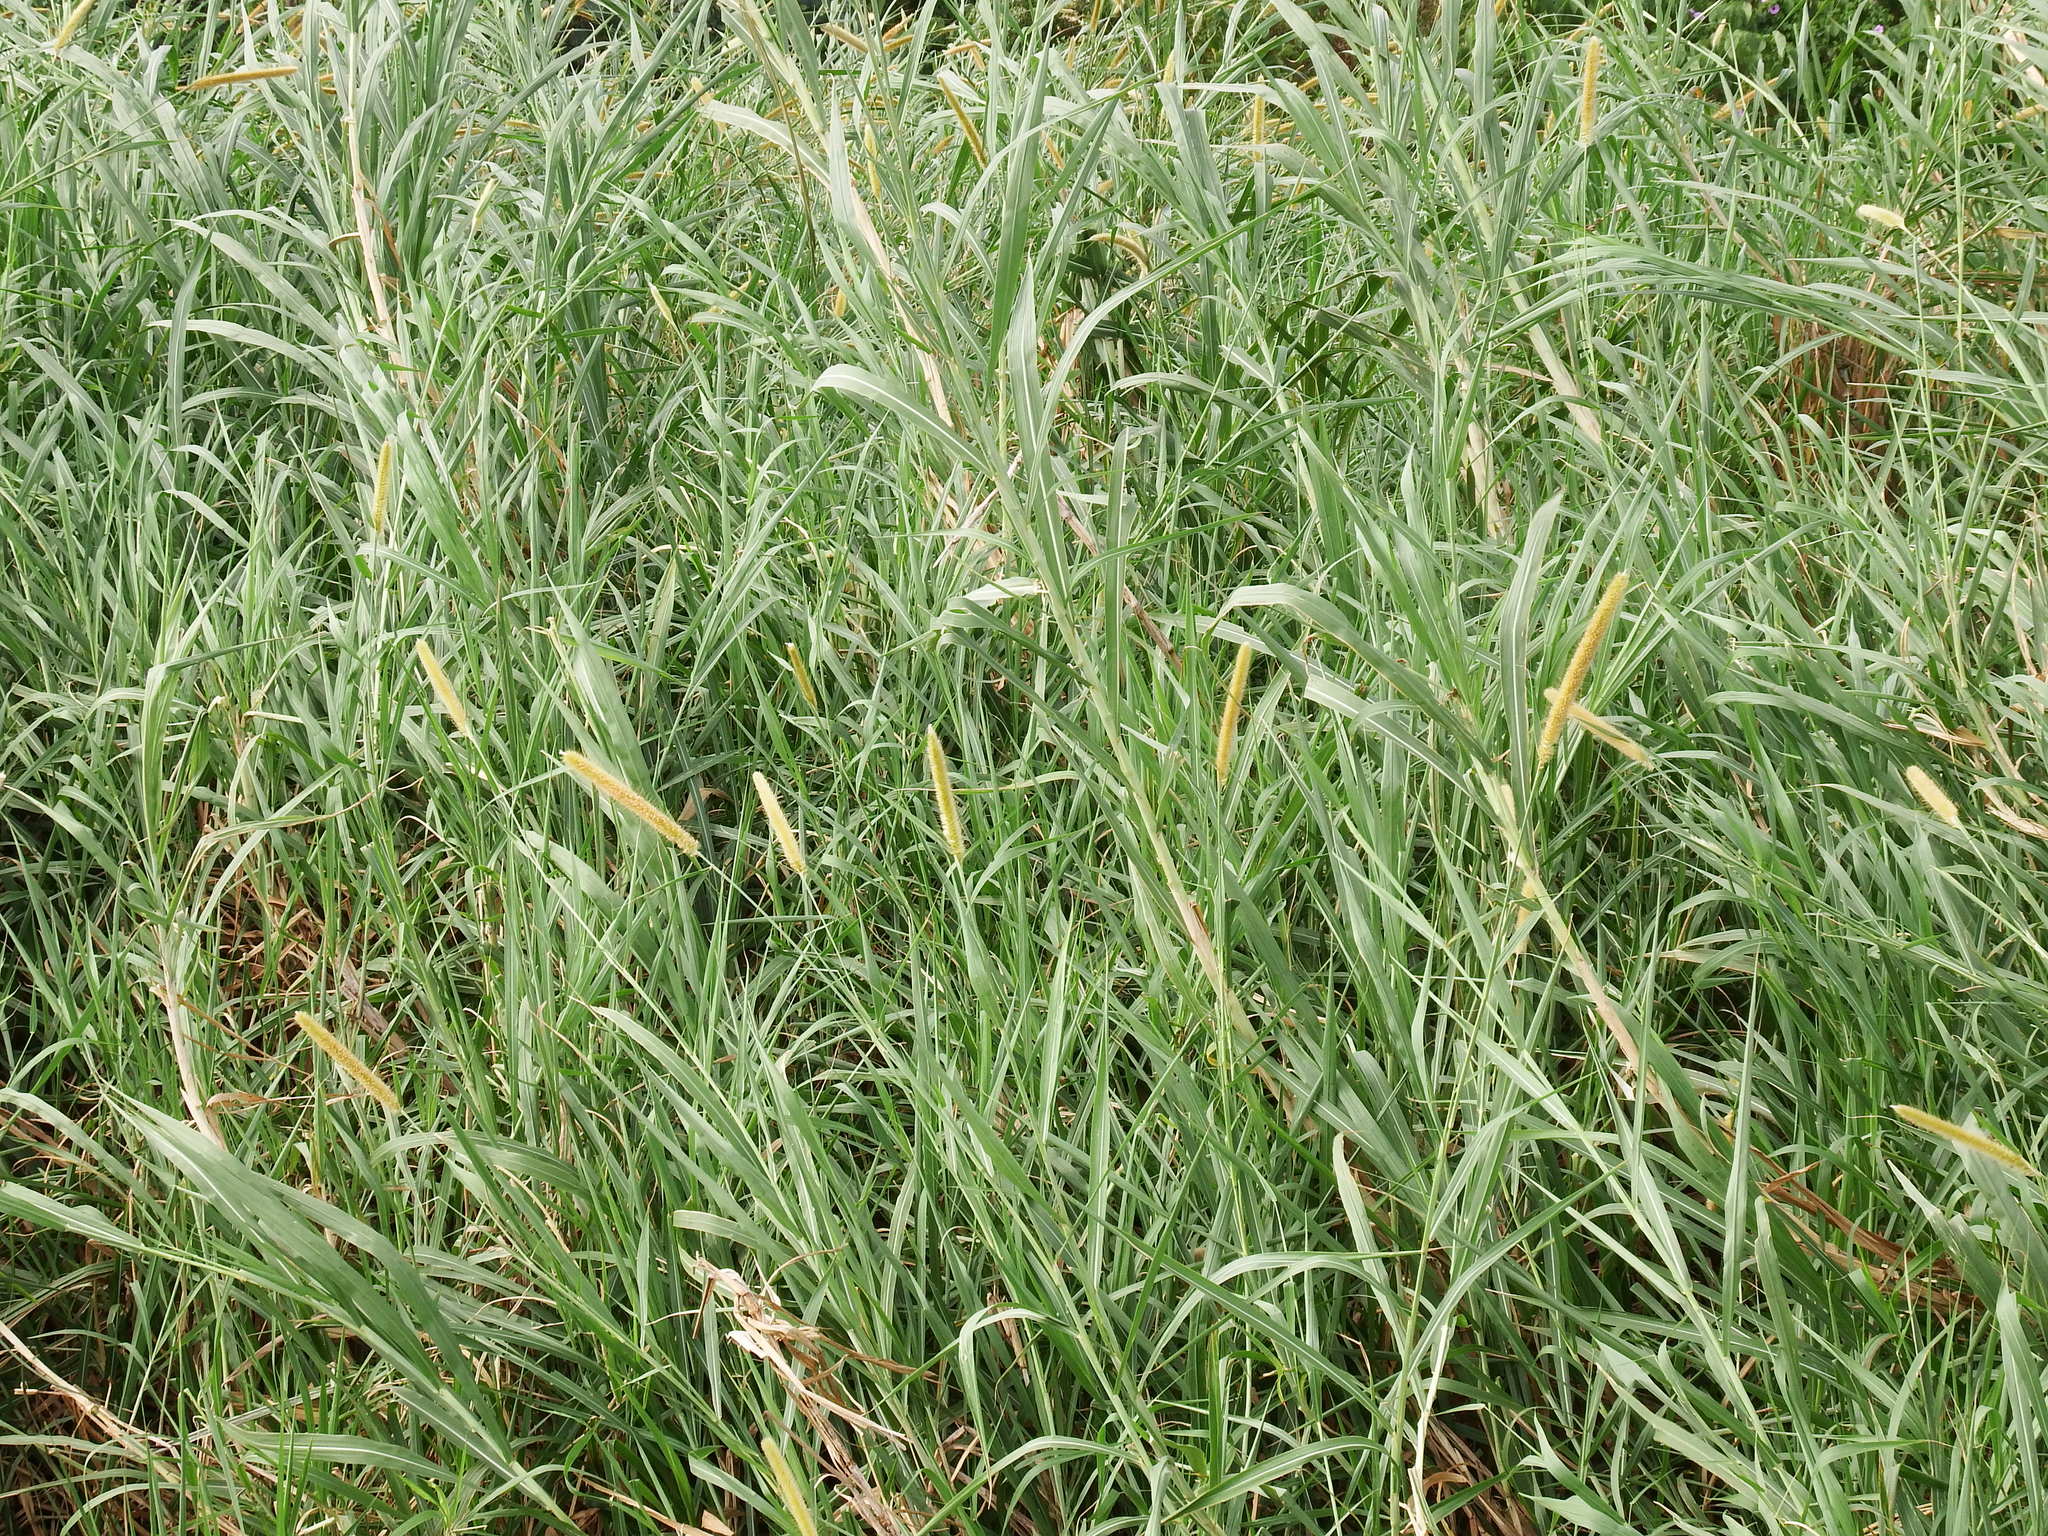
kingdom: Plantae
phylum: Tracheophyta
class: Liliopsida
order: Poales
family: Poaceae
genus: Cenchrus
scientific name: Cenchrus purpureus
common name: Elephant grass
